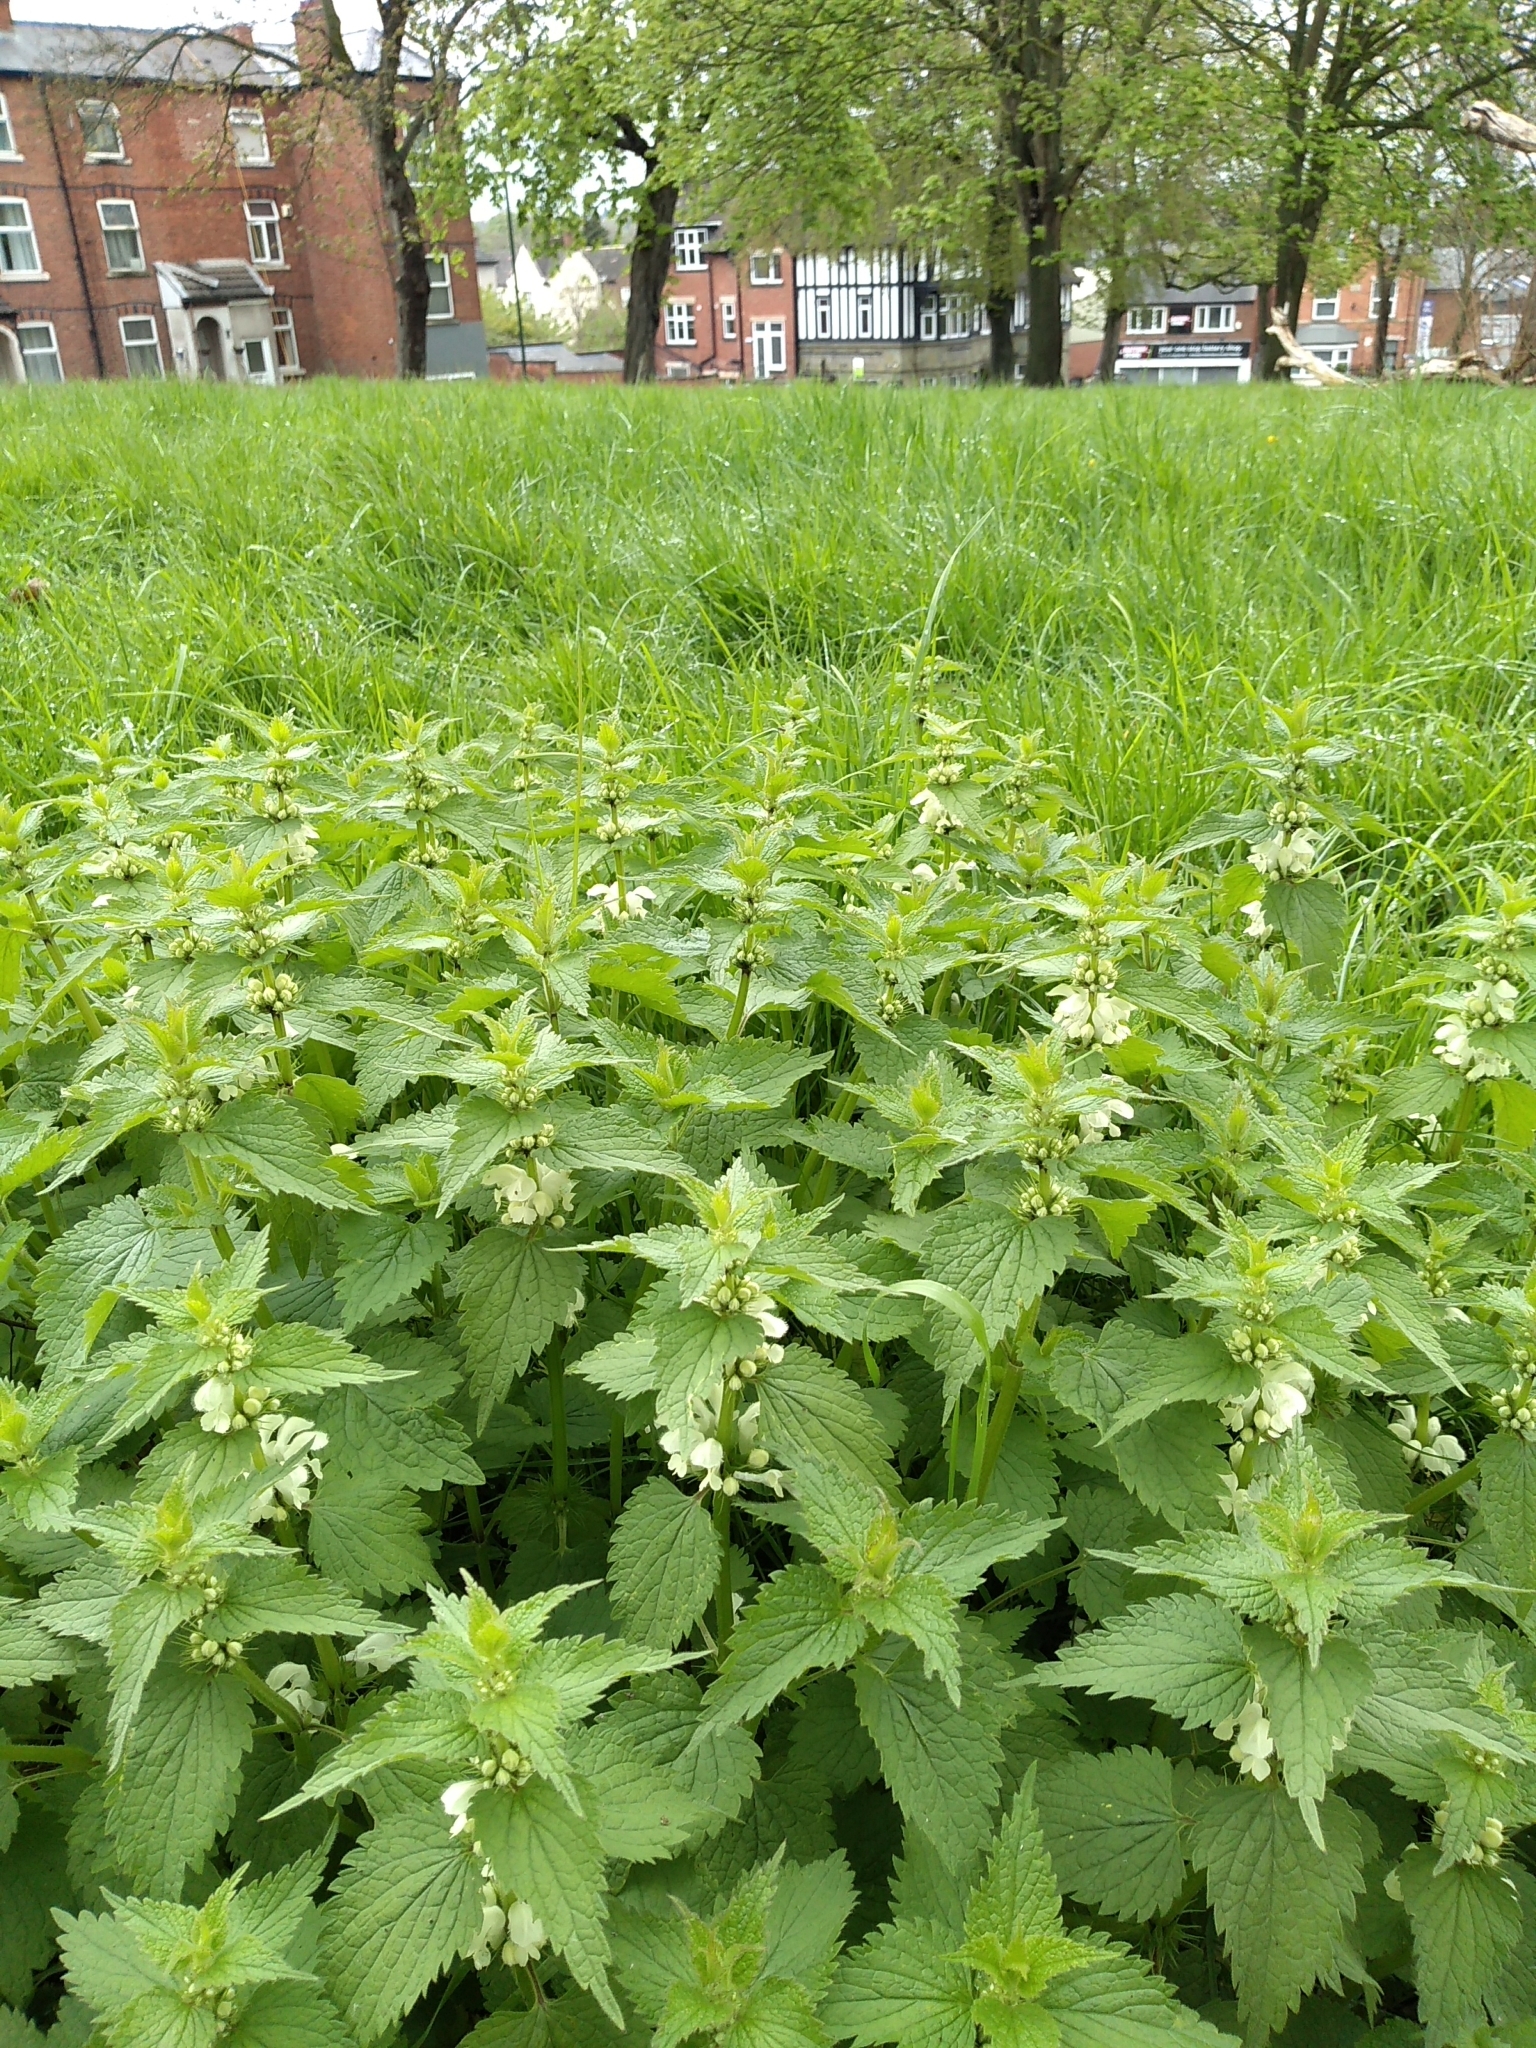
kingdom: Plantae
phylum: Tracheophyta
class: Magnoliopsida
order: Lamiales
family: Lamiaceae
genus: Lamium
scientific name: Lamium album
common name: White dead-nettle
